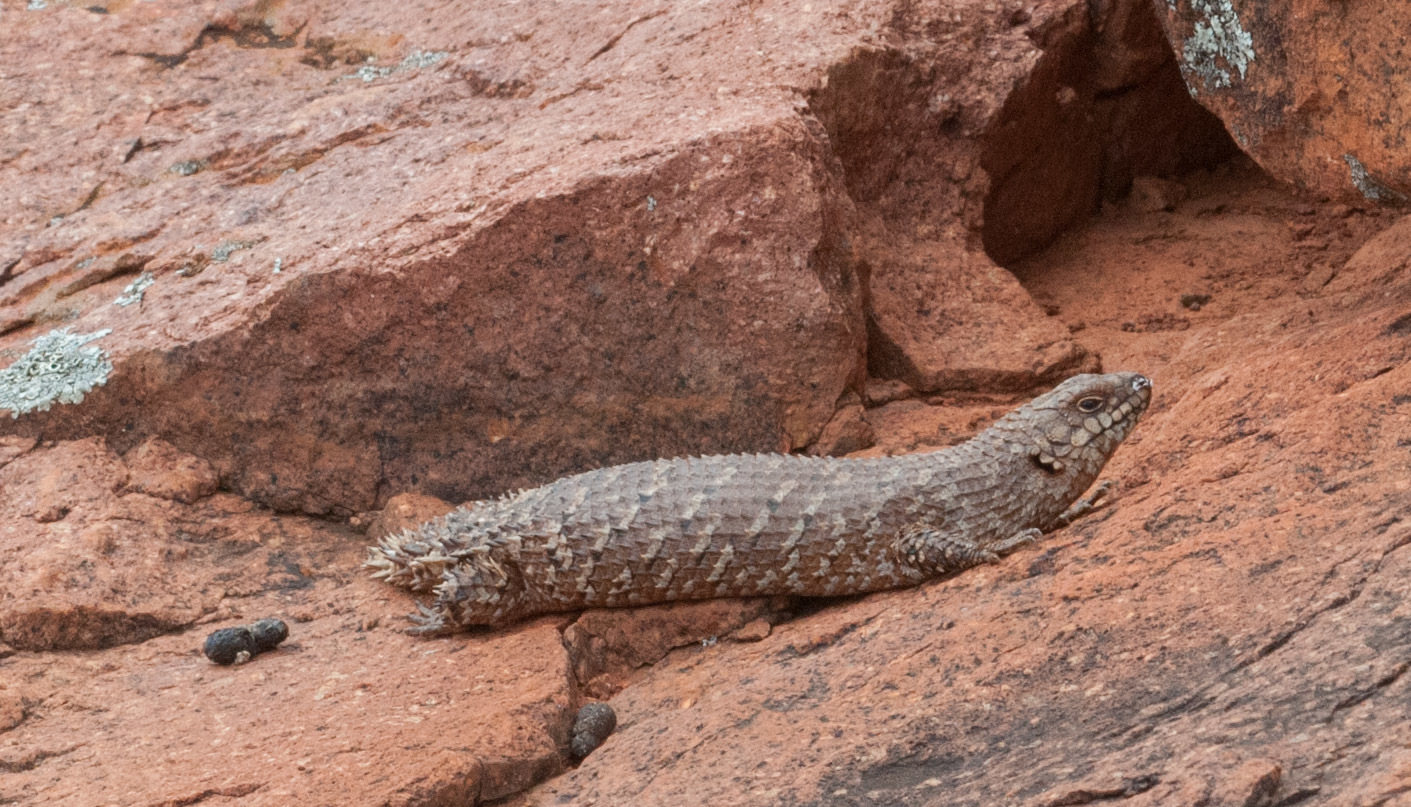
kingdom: Animalia
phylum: Chordata
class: Squamata
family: Scincidae
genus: Egernia
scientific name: Egernia stokesii
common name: Gidgee skink
